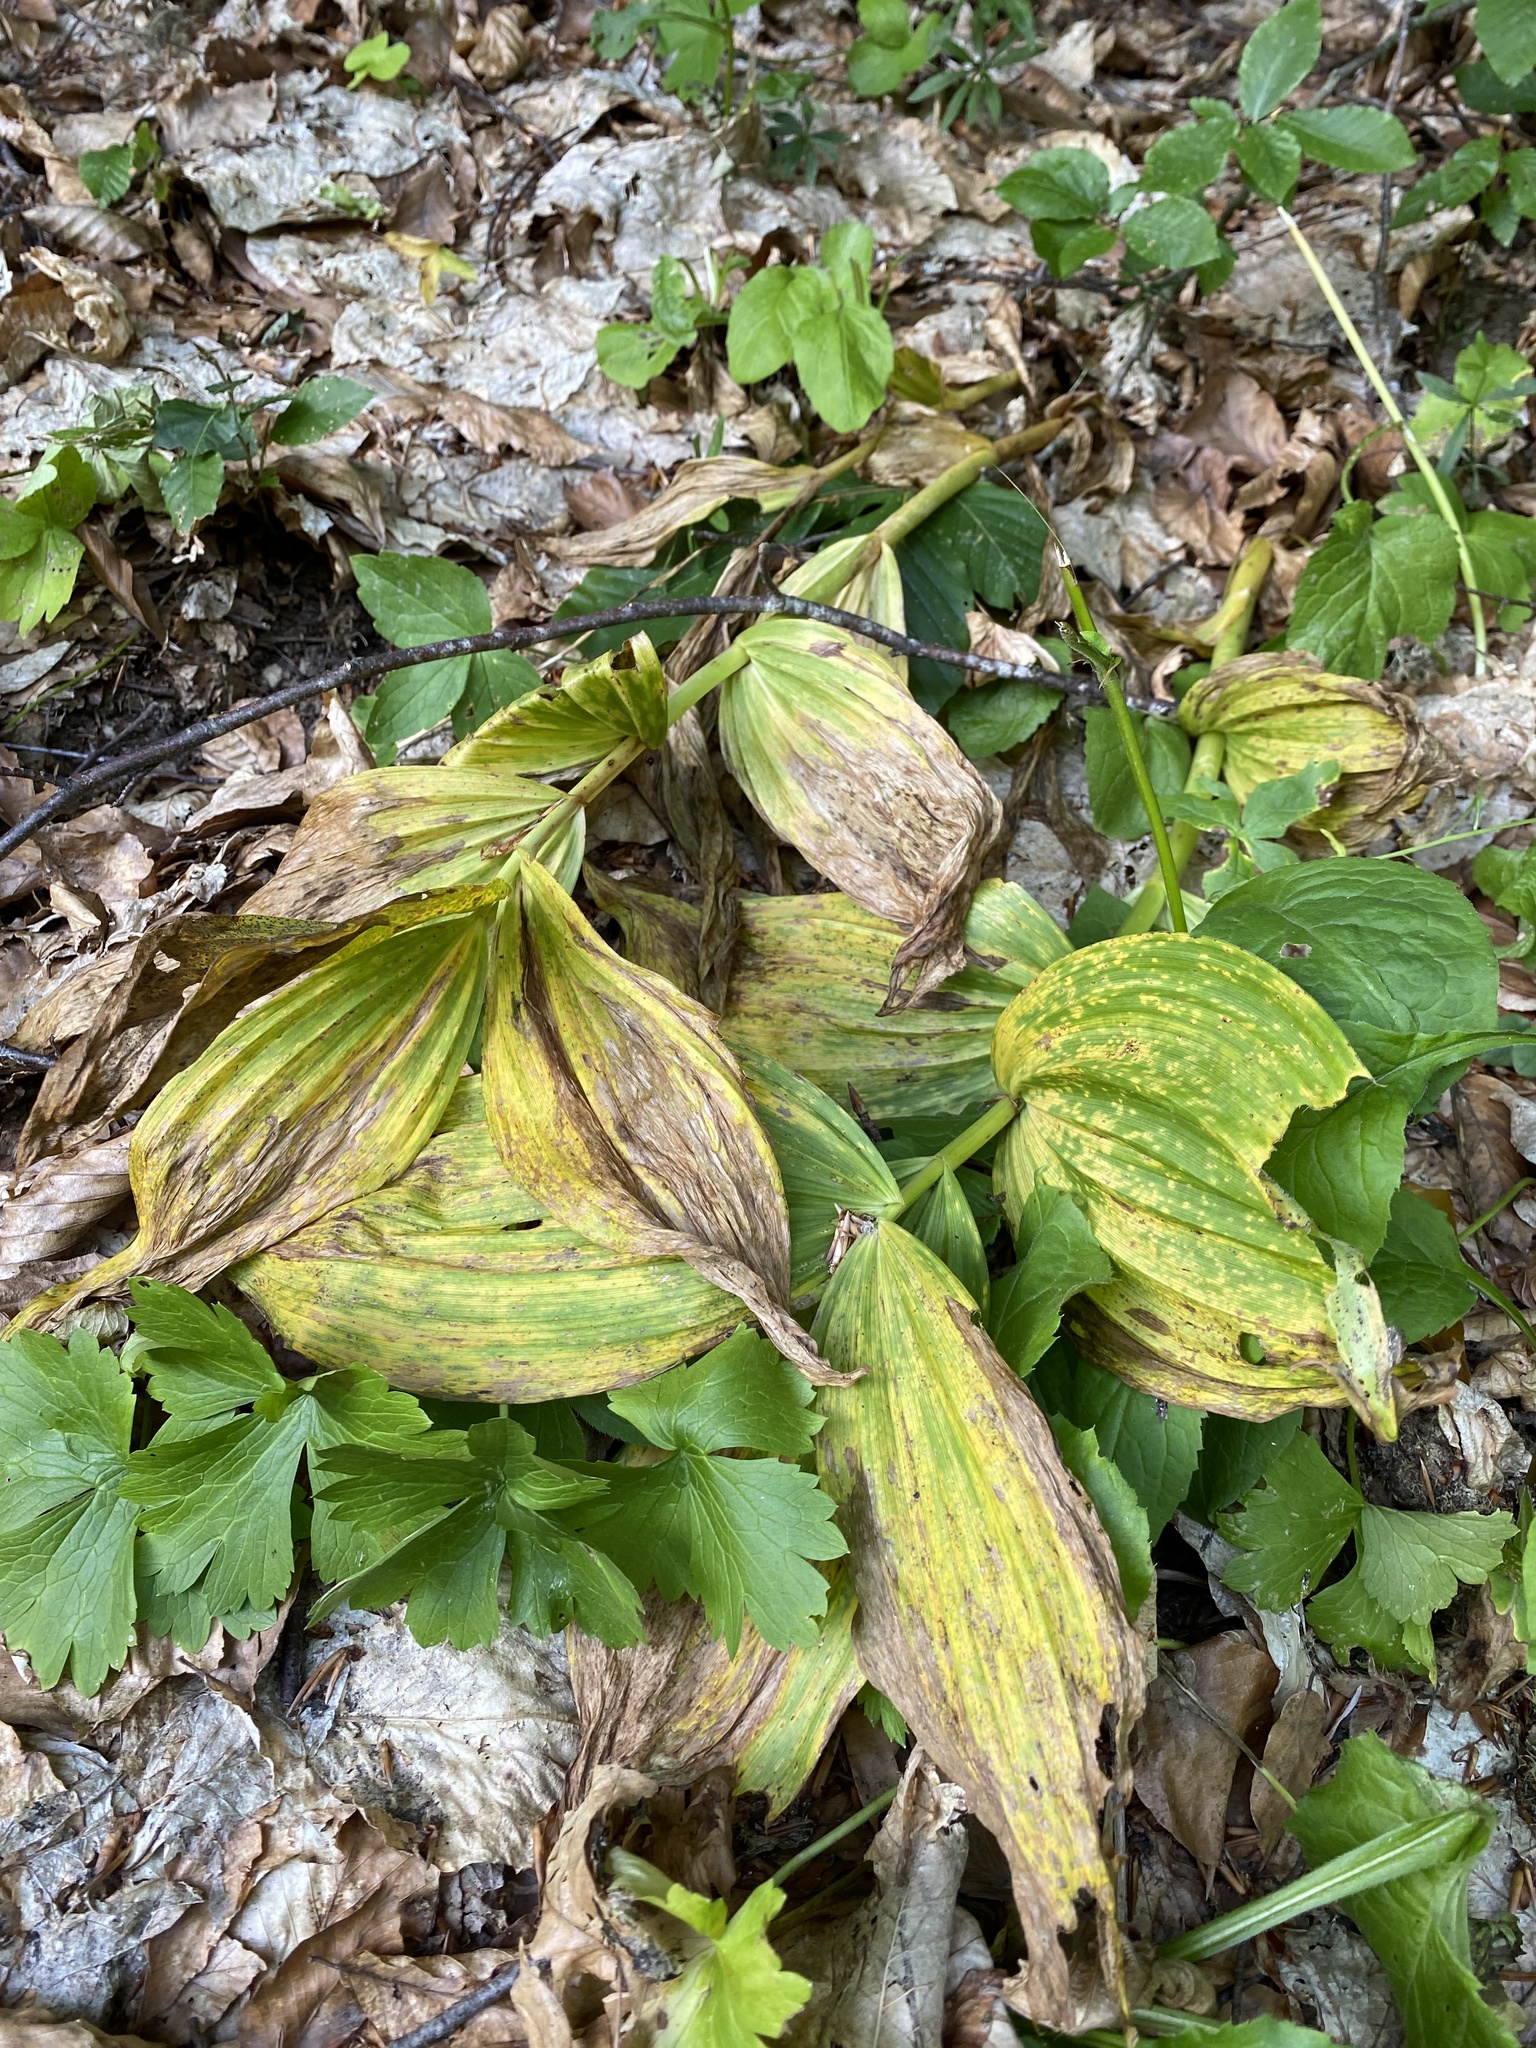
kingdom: Plantae
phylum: Tracheophyta
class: Liliopsida
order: Liliales
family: Melanthiaceae
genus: Veratrum
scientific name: Veratrum lobelianum
